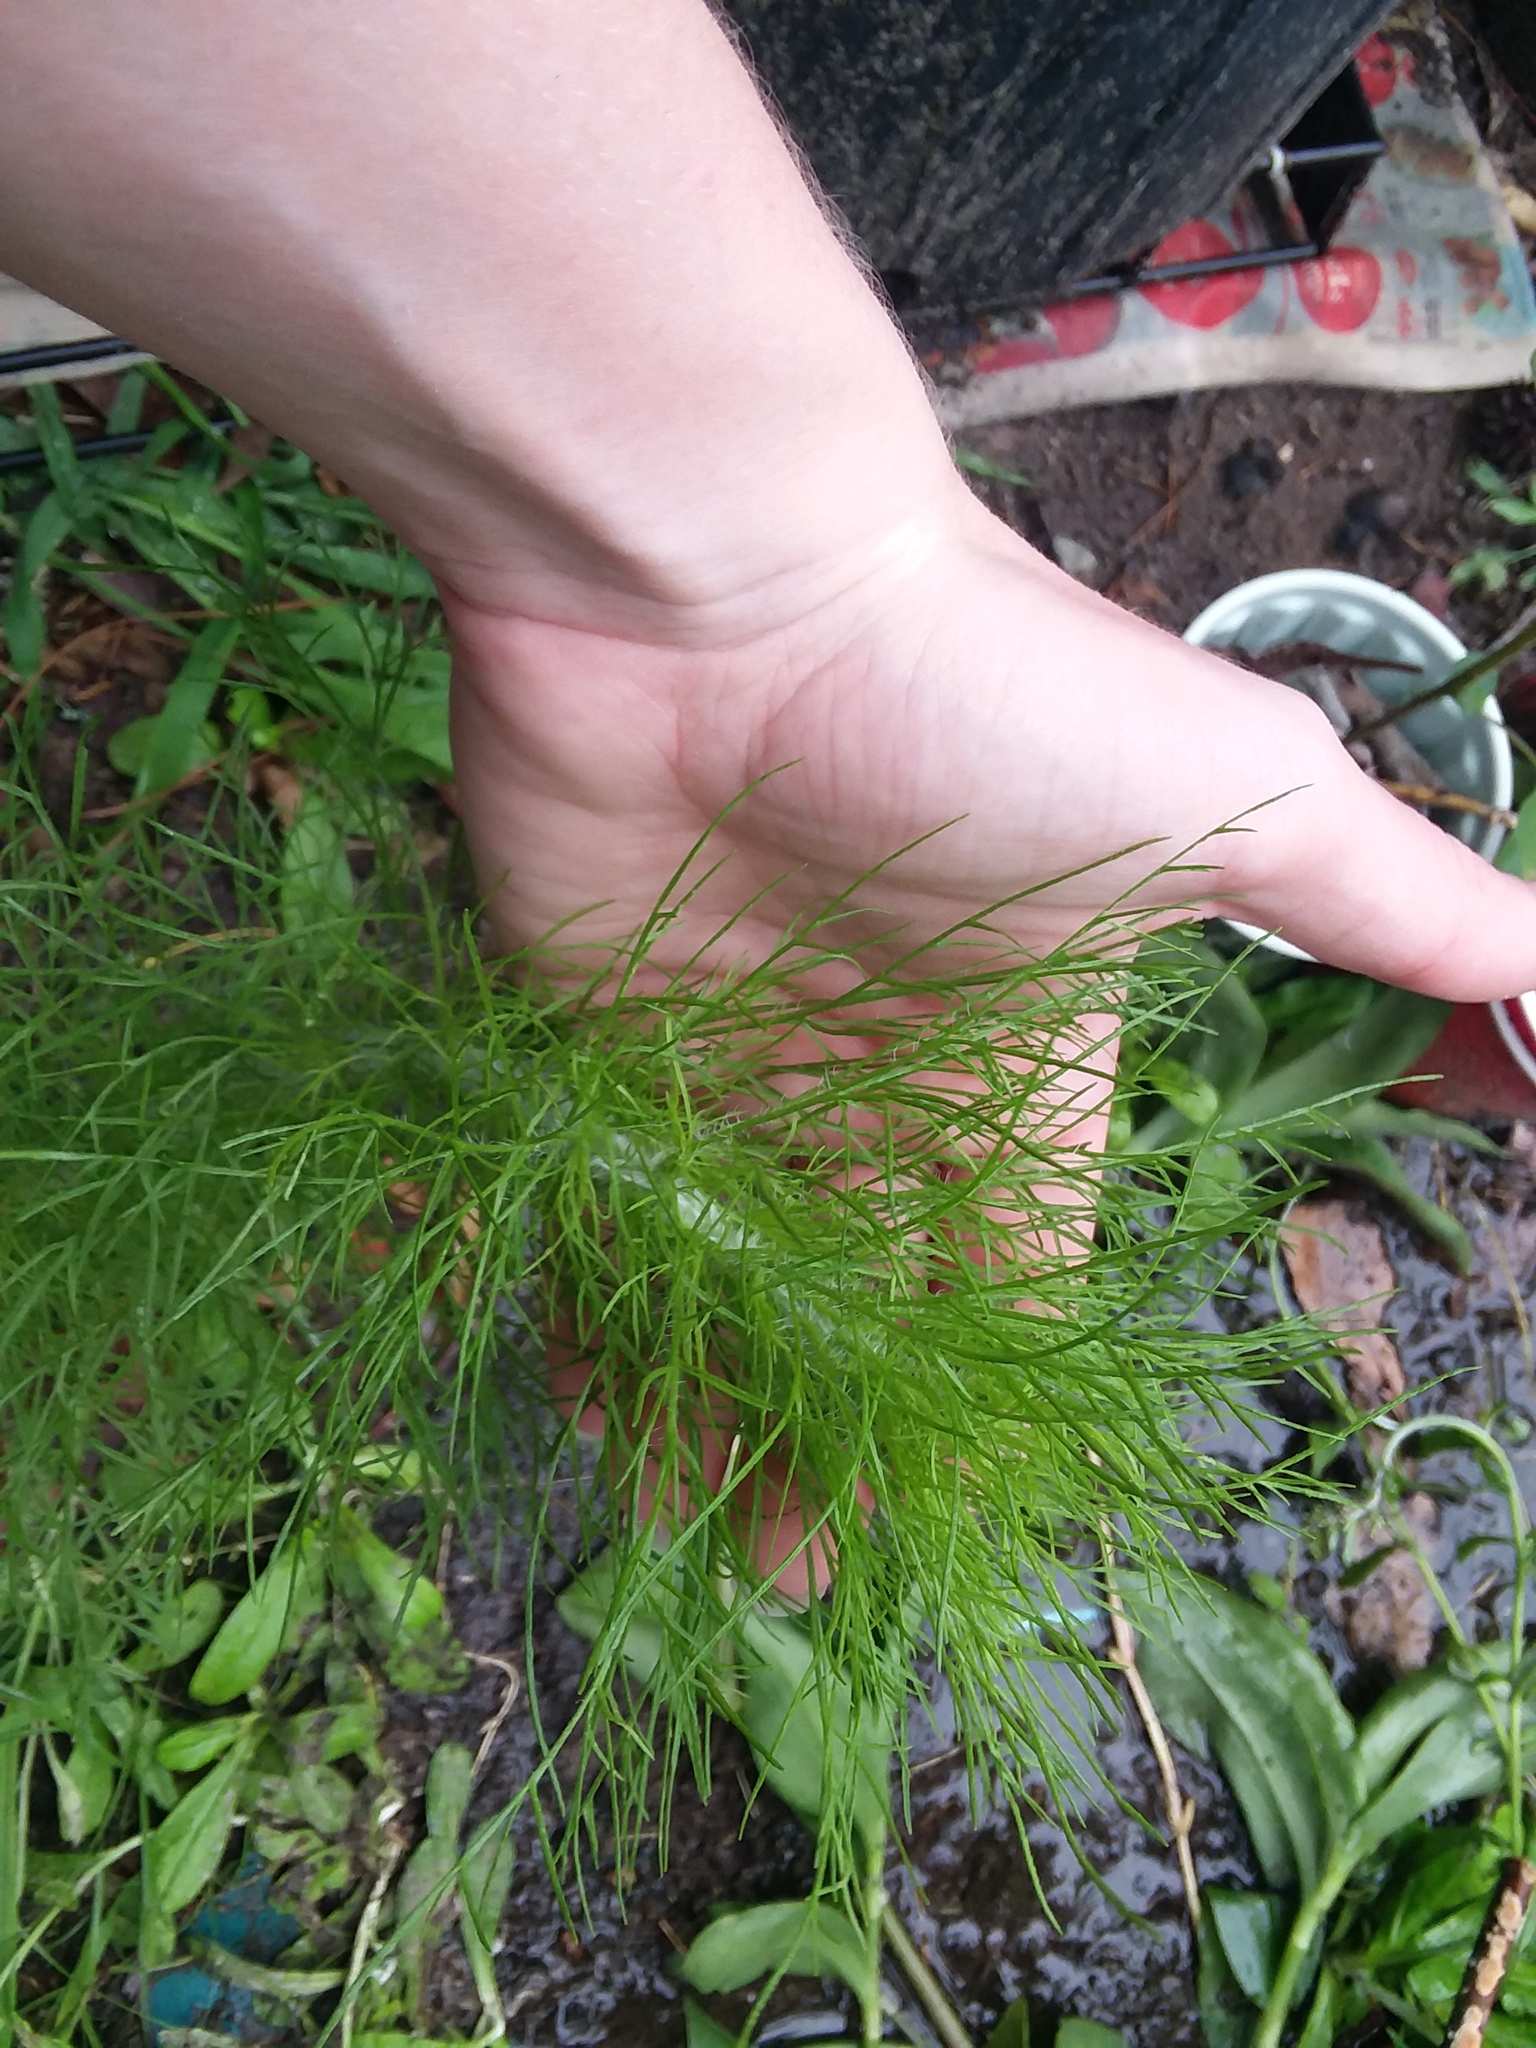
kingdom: Plantae
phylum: Tracheophyta
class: Magnoliopsida
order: Asterales
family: Asteraceae
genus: Eupatorium
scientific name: Eupatorium capillifolium
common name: Dog-fennel
